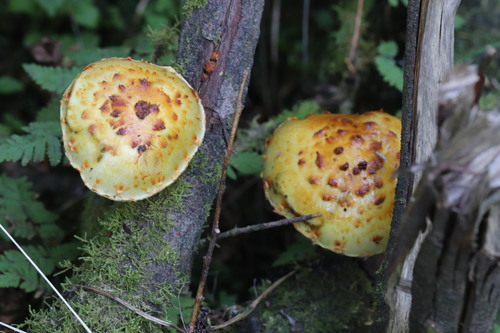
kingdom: Fungi
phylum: Basidiomycota
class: Agaricomycetes
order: Agaricales
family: Strophariaceae
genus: Pholiota
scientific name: Pholiota
